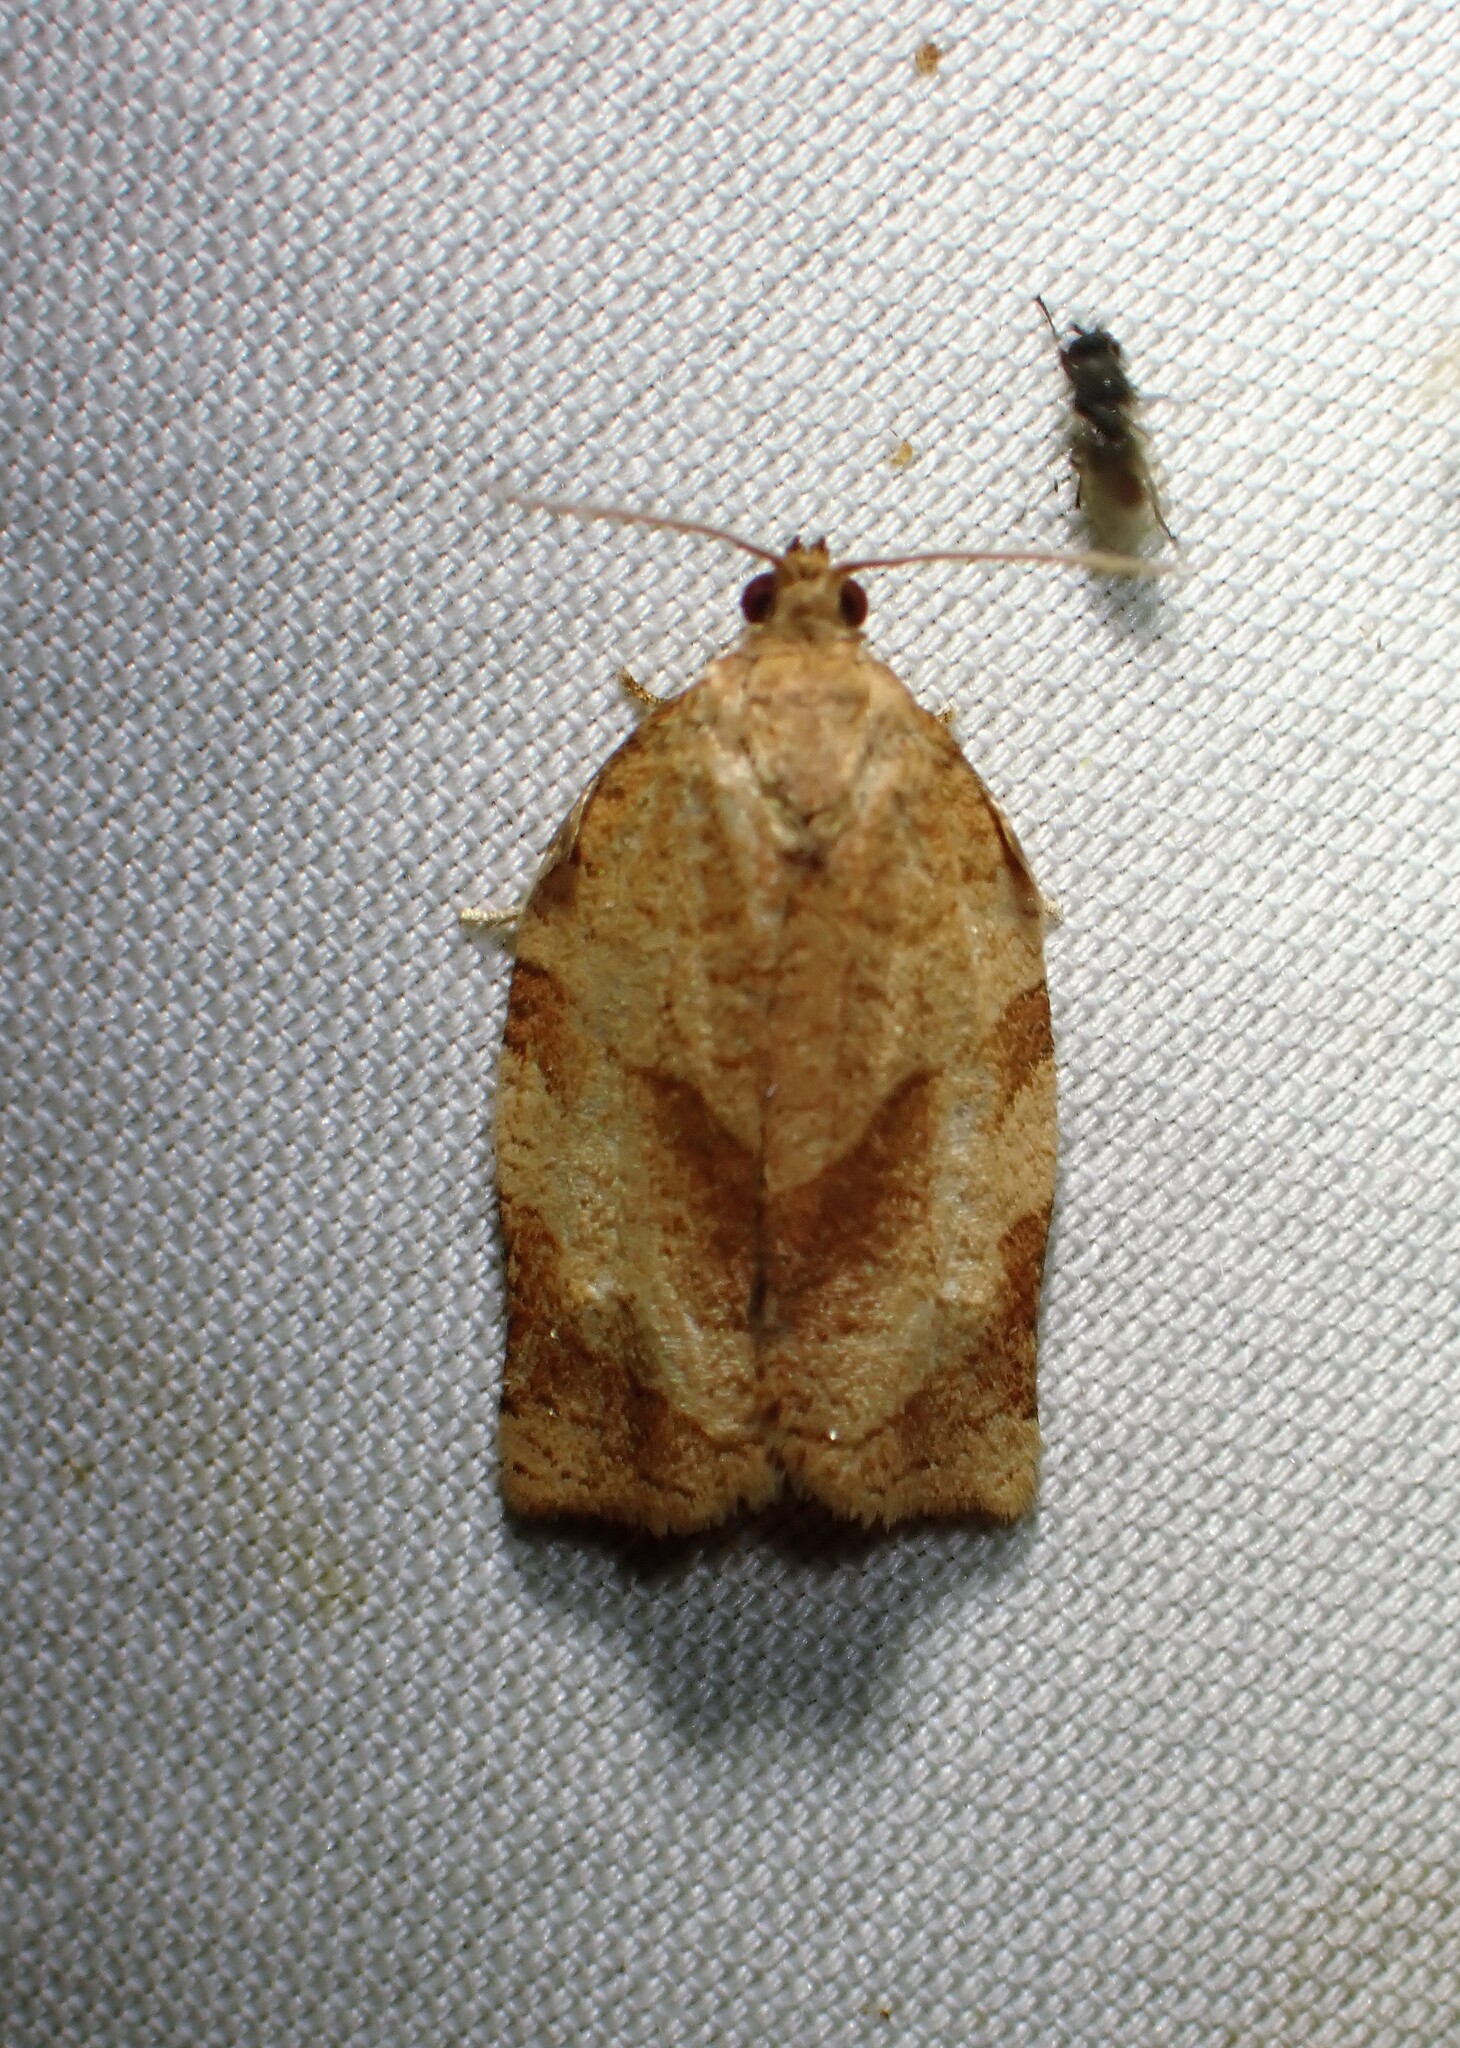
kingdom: Animalia
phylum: Arthropoda
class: Insecta
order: Lepidoptera
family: Tortricidae
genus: Choristoneura
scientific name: Choristoneura rosaceana
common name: Oblique-banded leafroller moth
